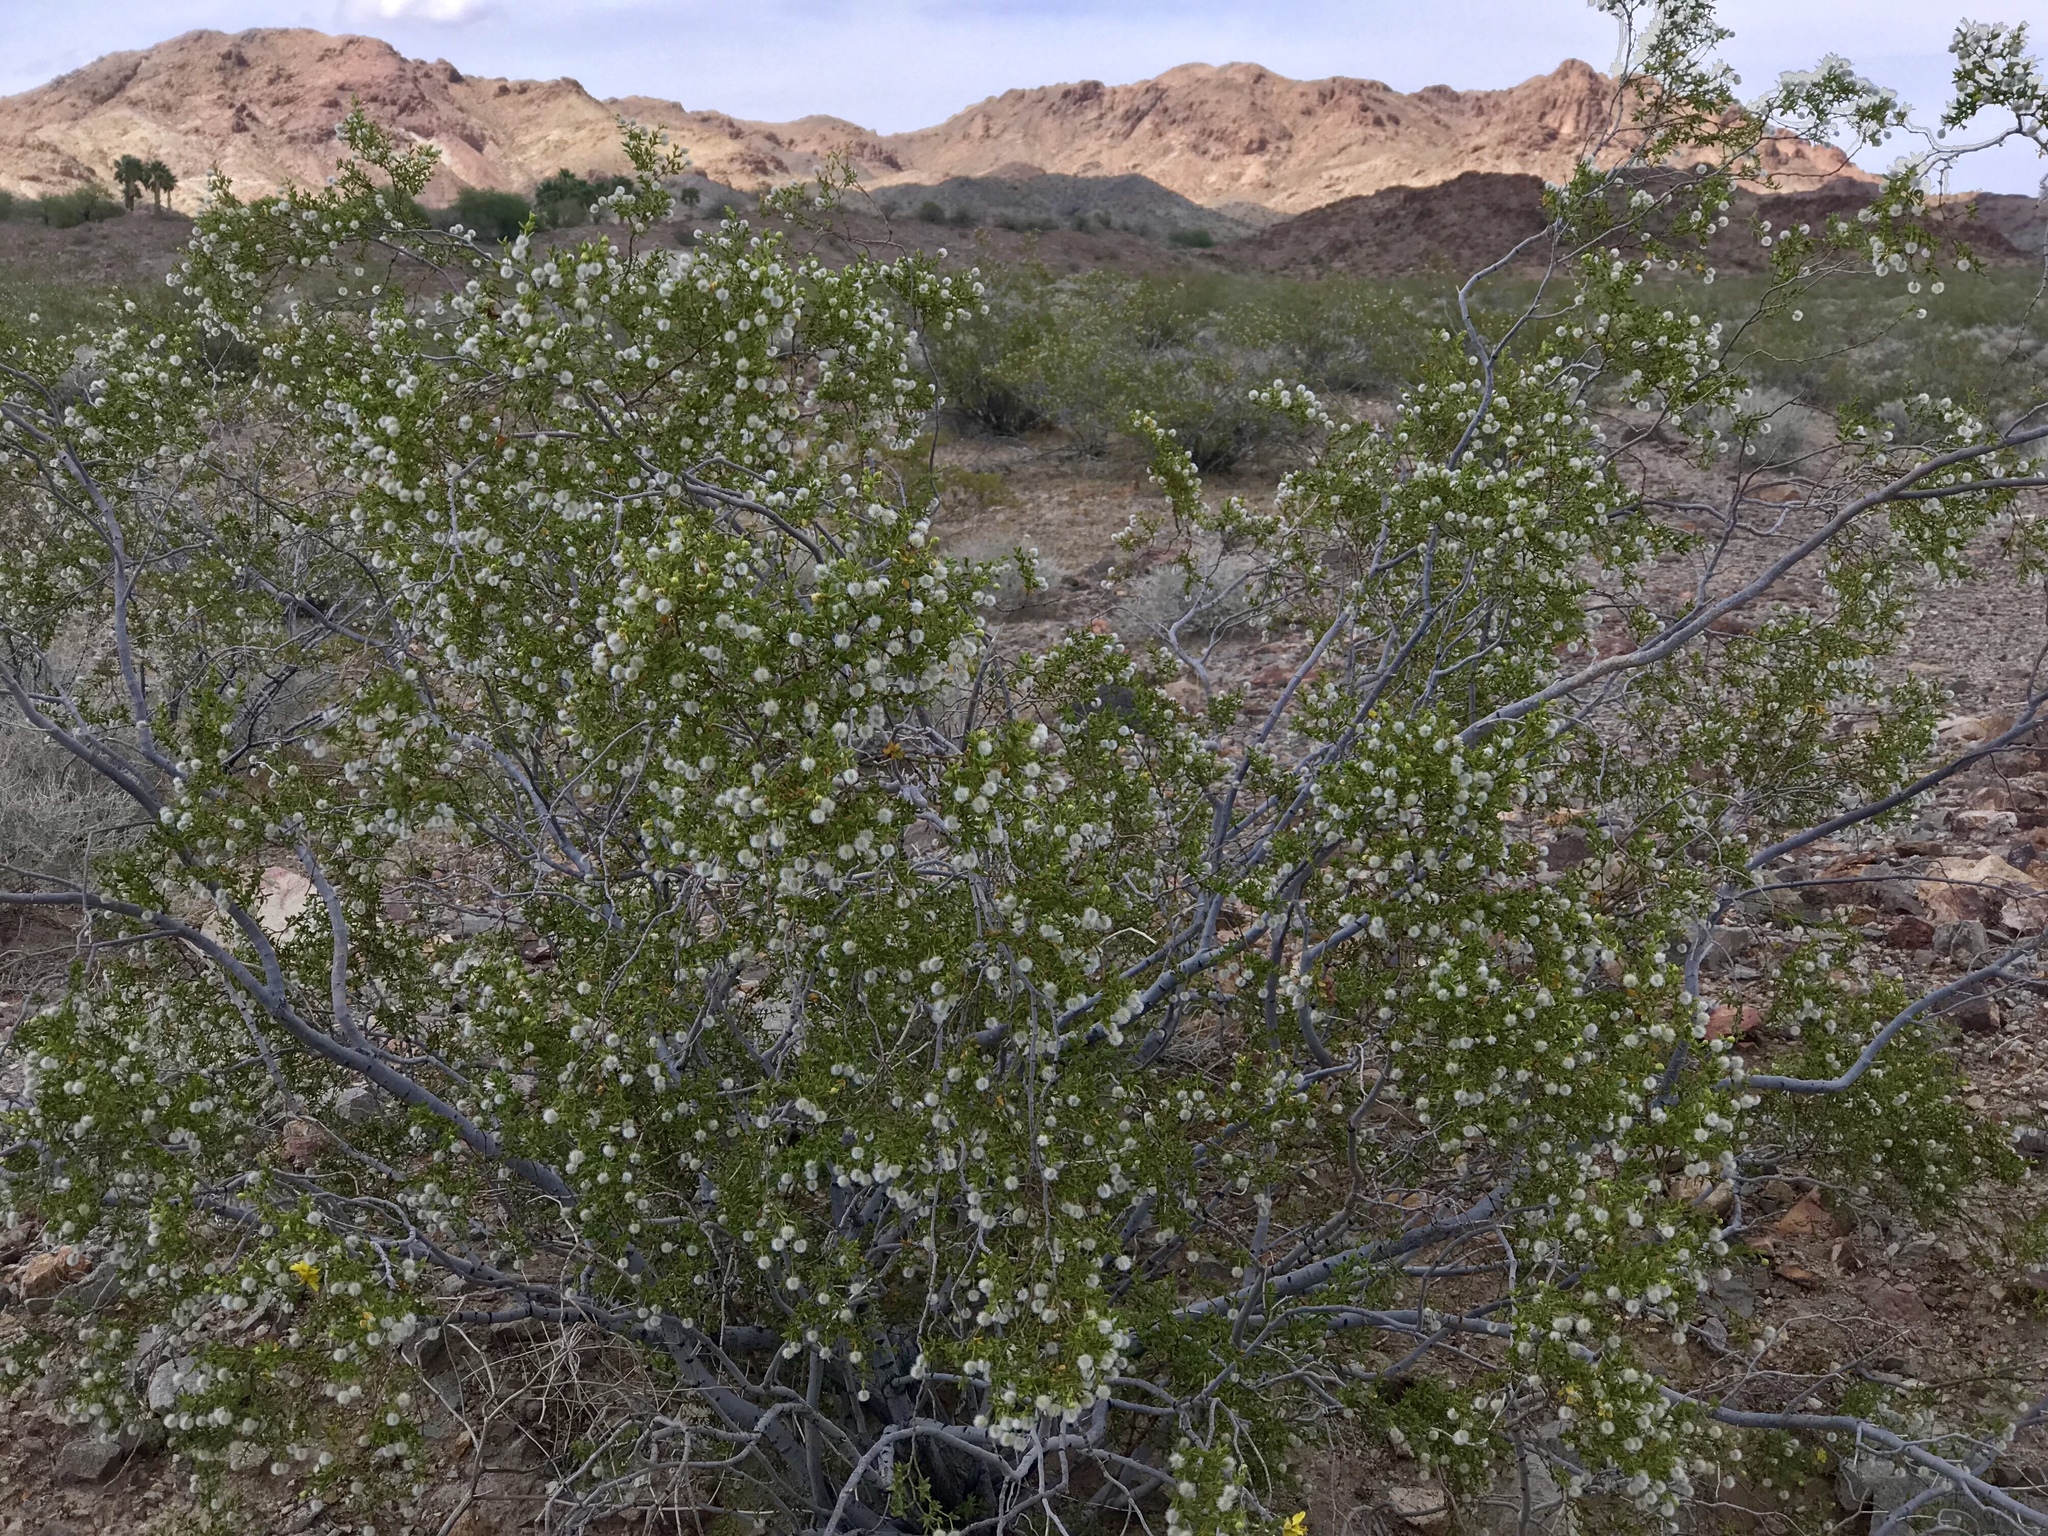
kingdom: Plantae
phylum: Tracheophyta
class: Magnoliopsida
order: Zygophyllales
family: Zygophyllaceae
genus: Larrea
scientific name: Larrea tridentata
